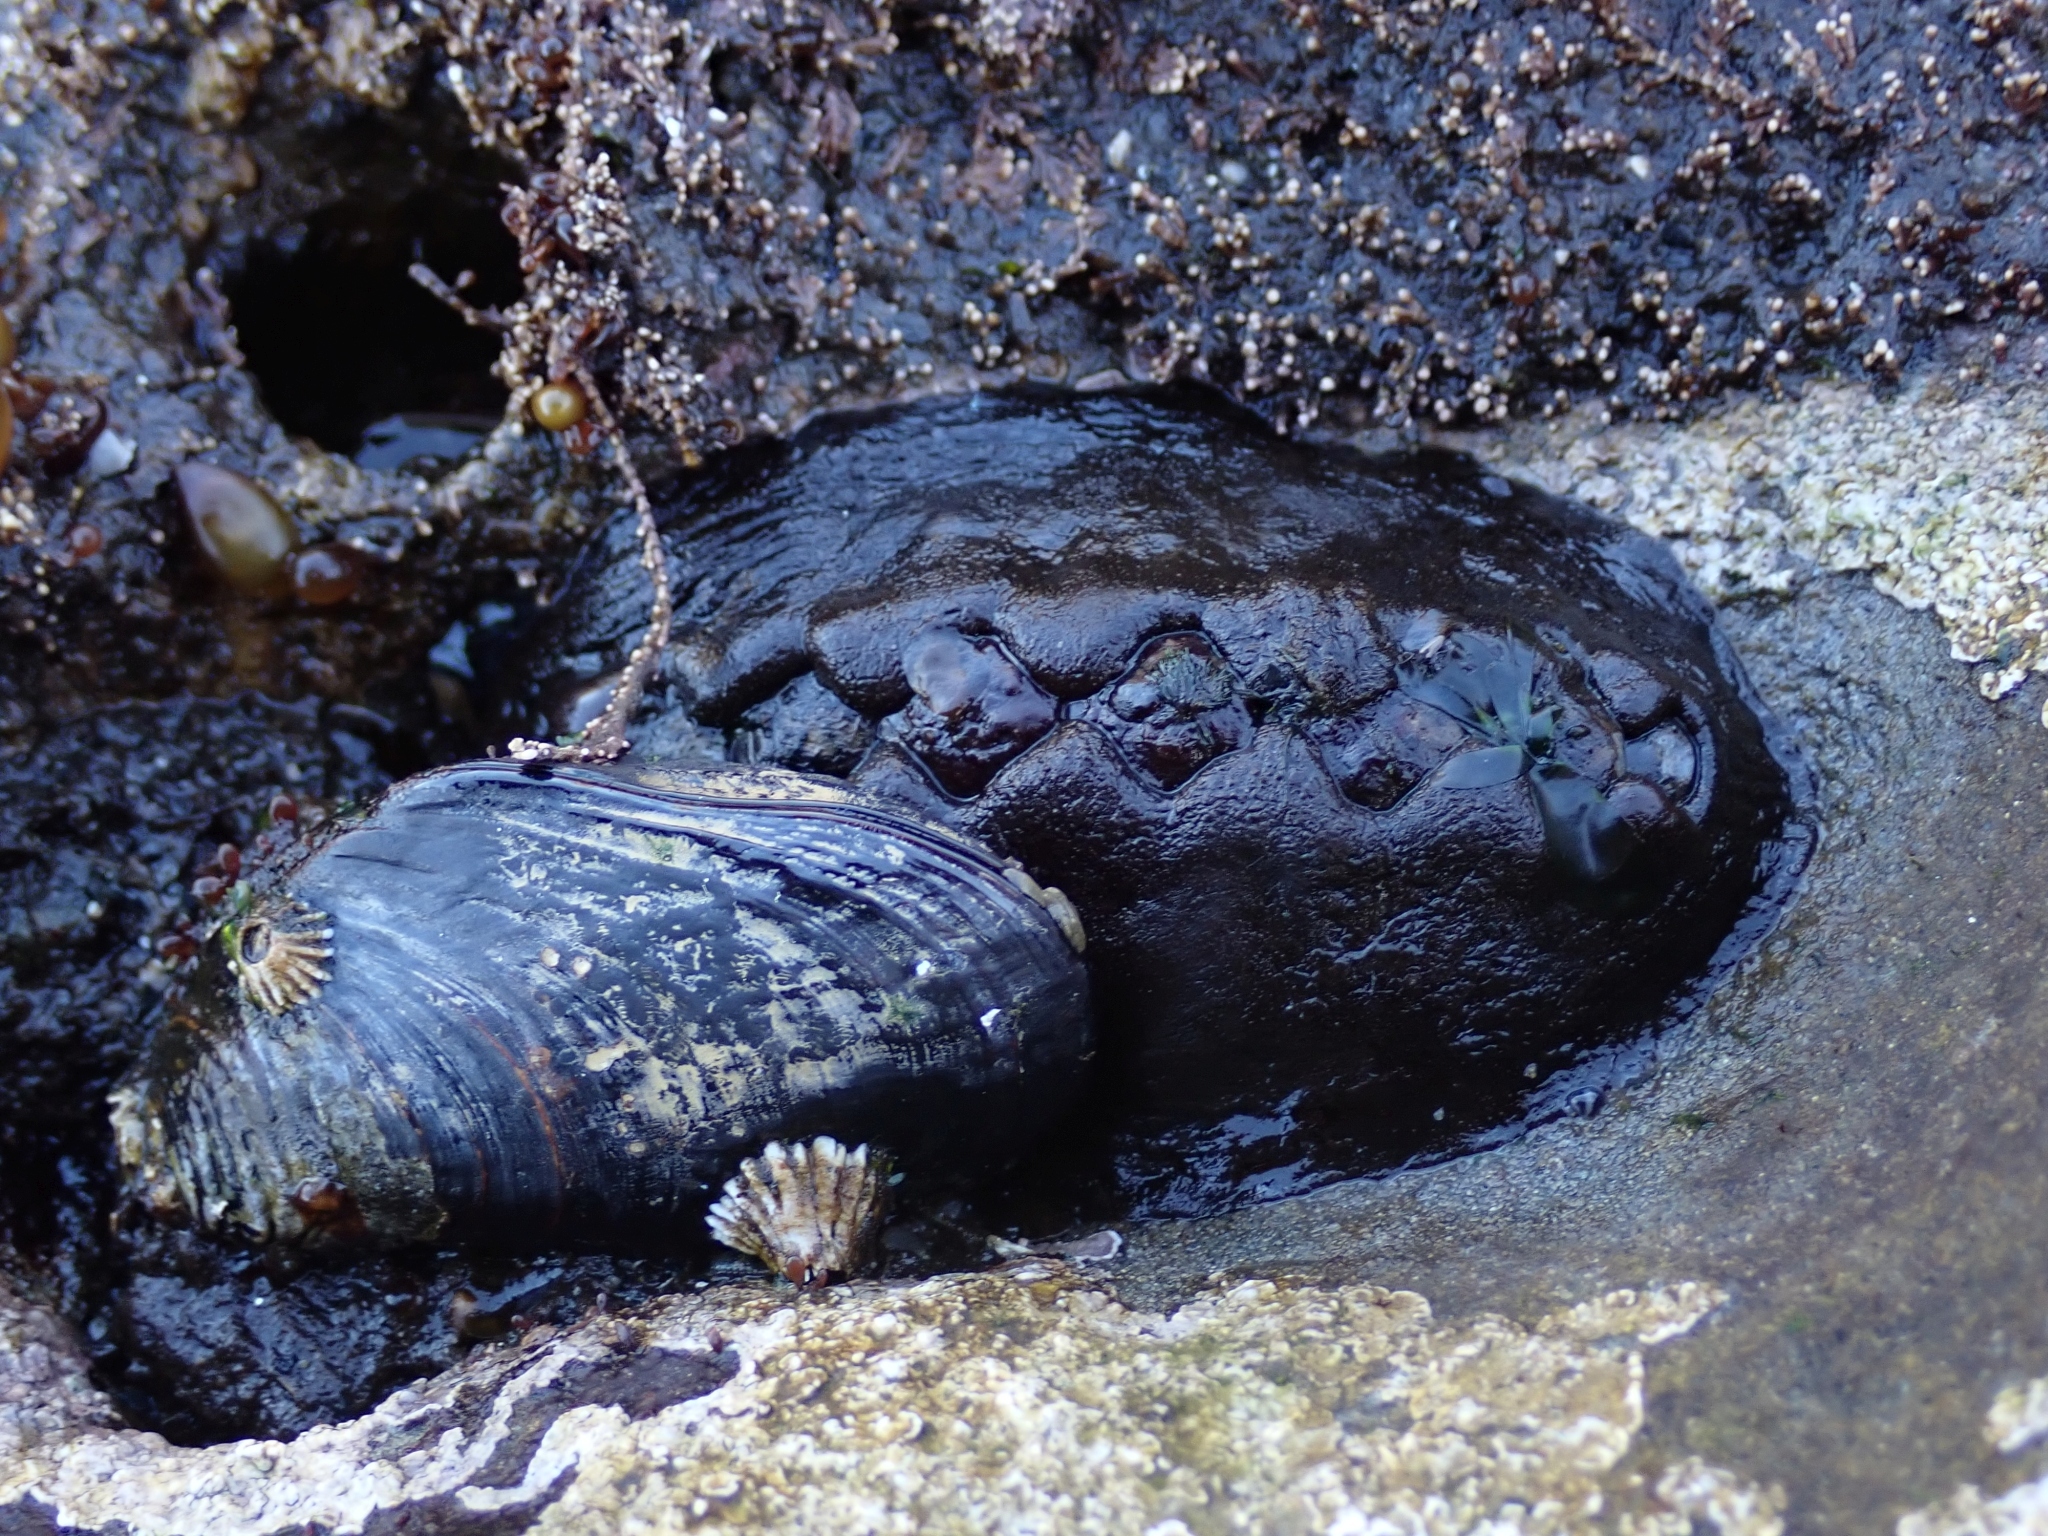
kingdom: Animalia
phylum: Mollusca
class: Polyplacophora
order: Chitonida
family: Mopaliidae
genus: Katharina
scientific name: Katharina tunicata
